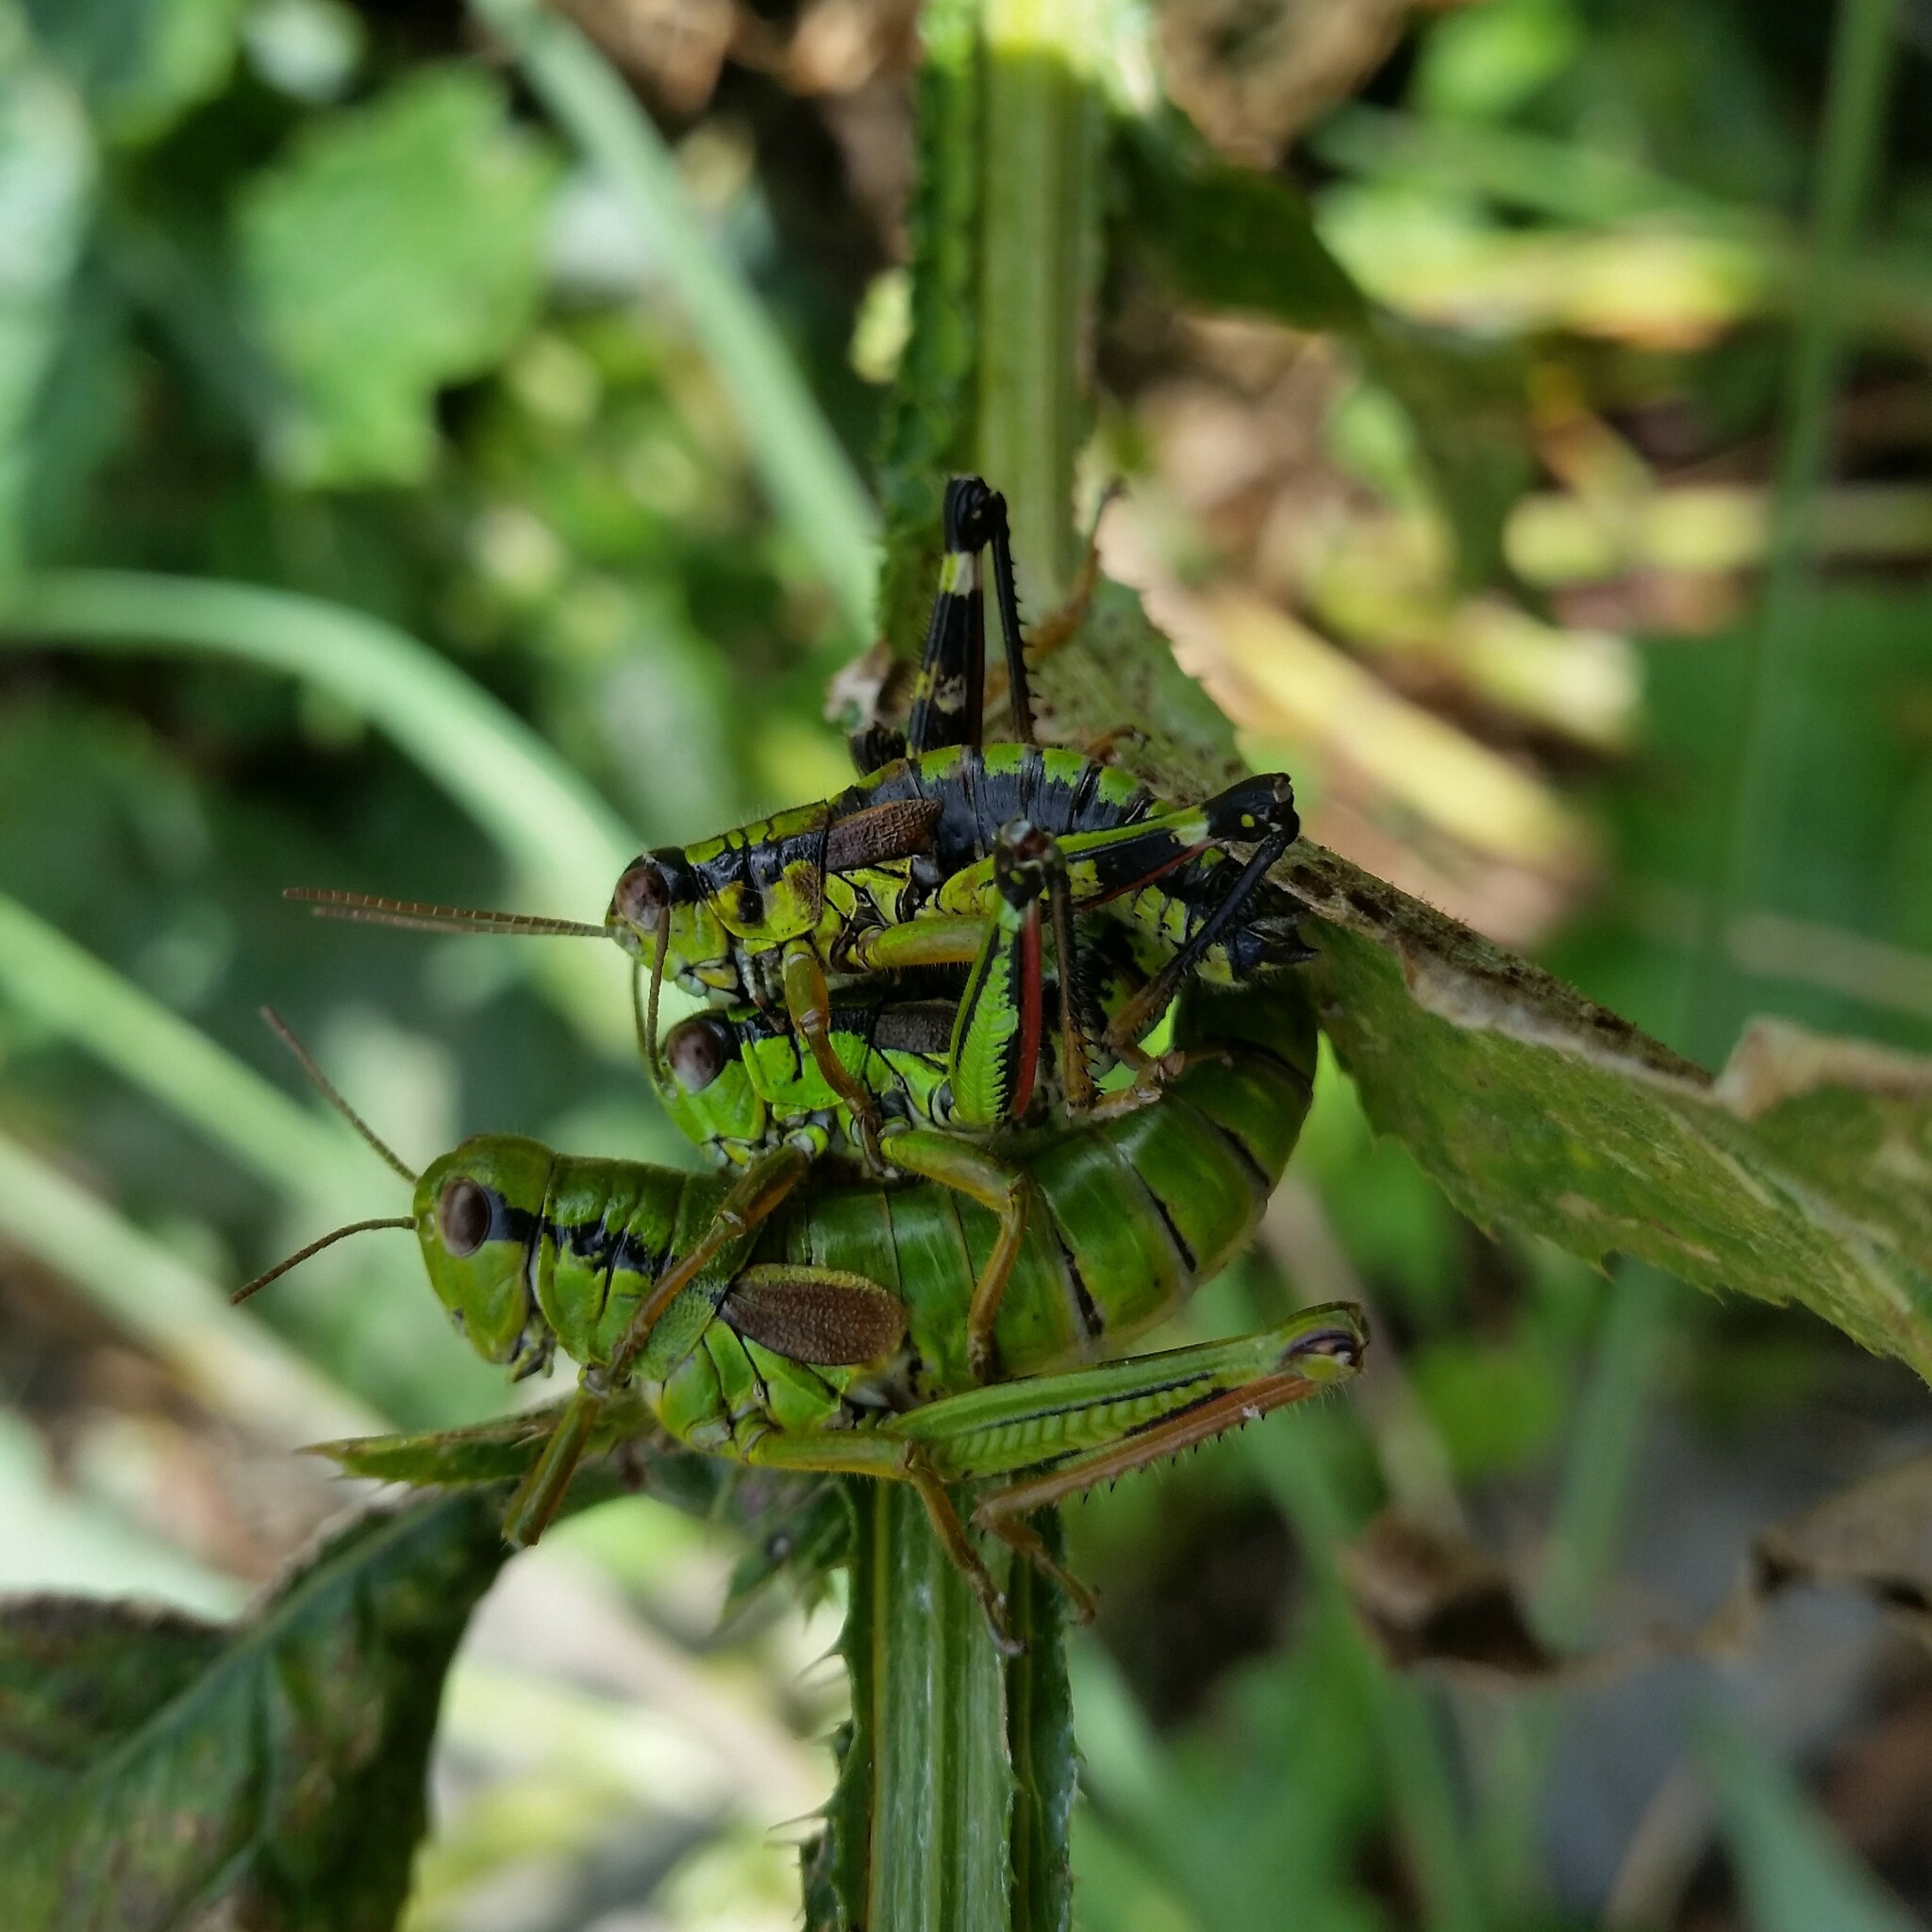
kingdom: Animalia
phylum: Arthropoda
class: Insecta
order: Orthoptera
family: Acrididae
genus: Miramella
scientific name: Miramella alpina
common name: Green mountain grasshopper
